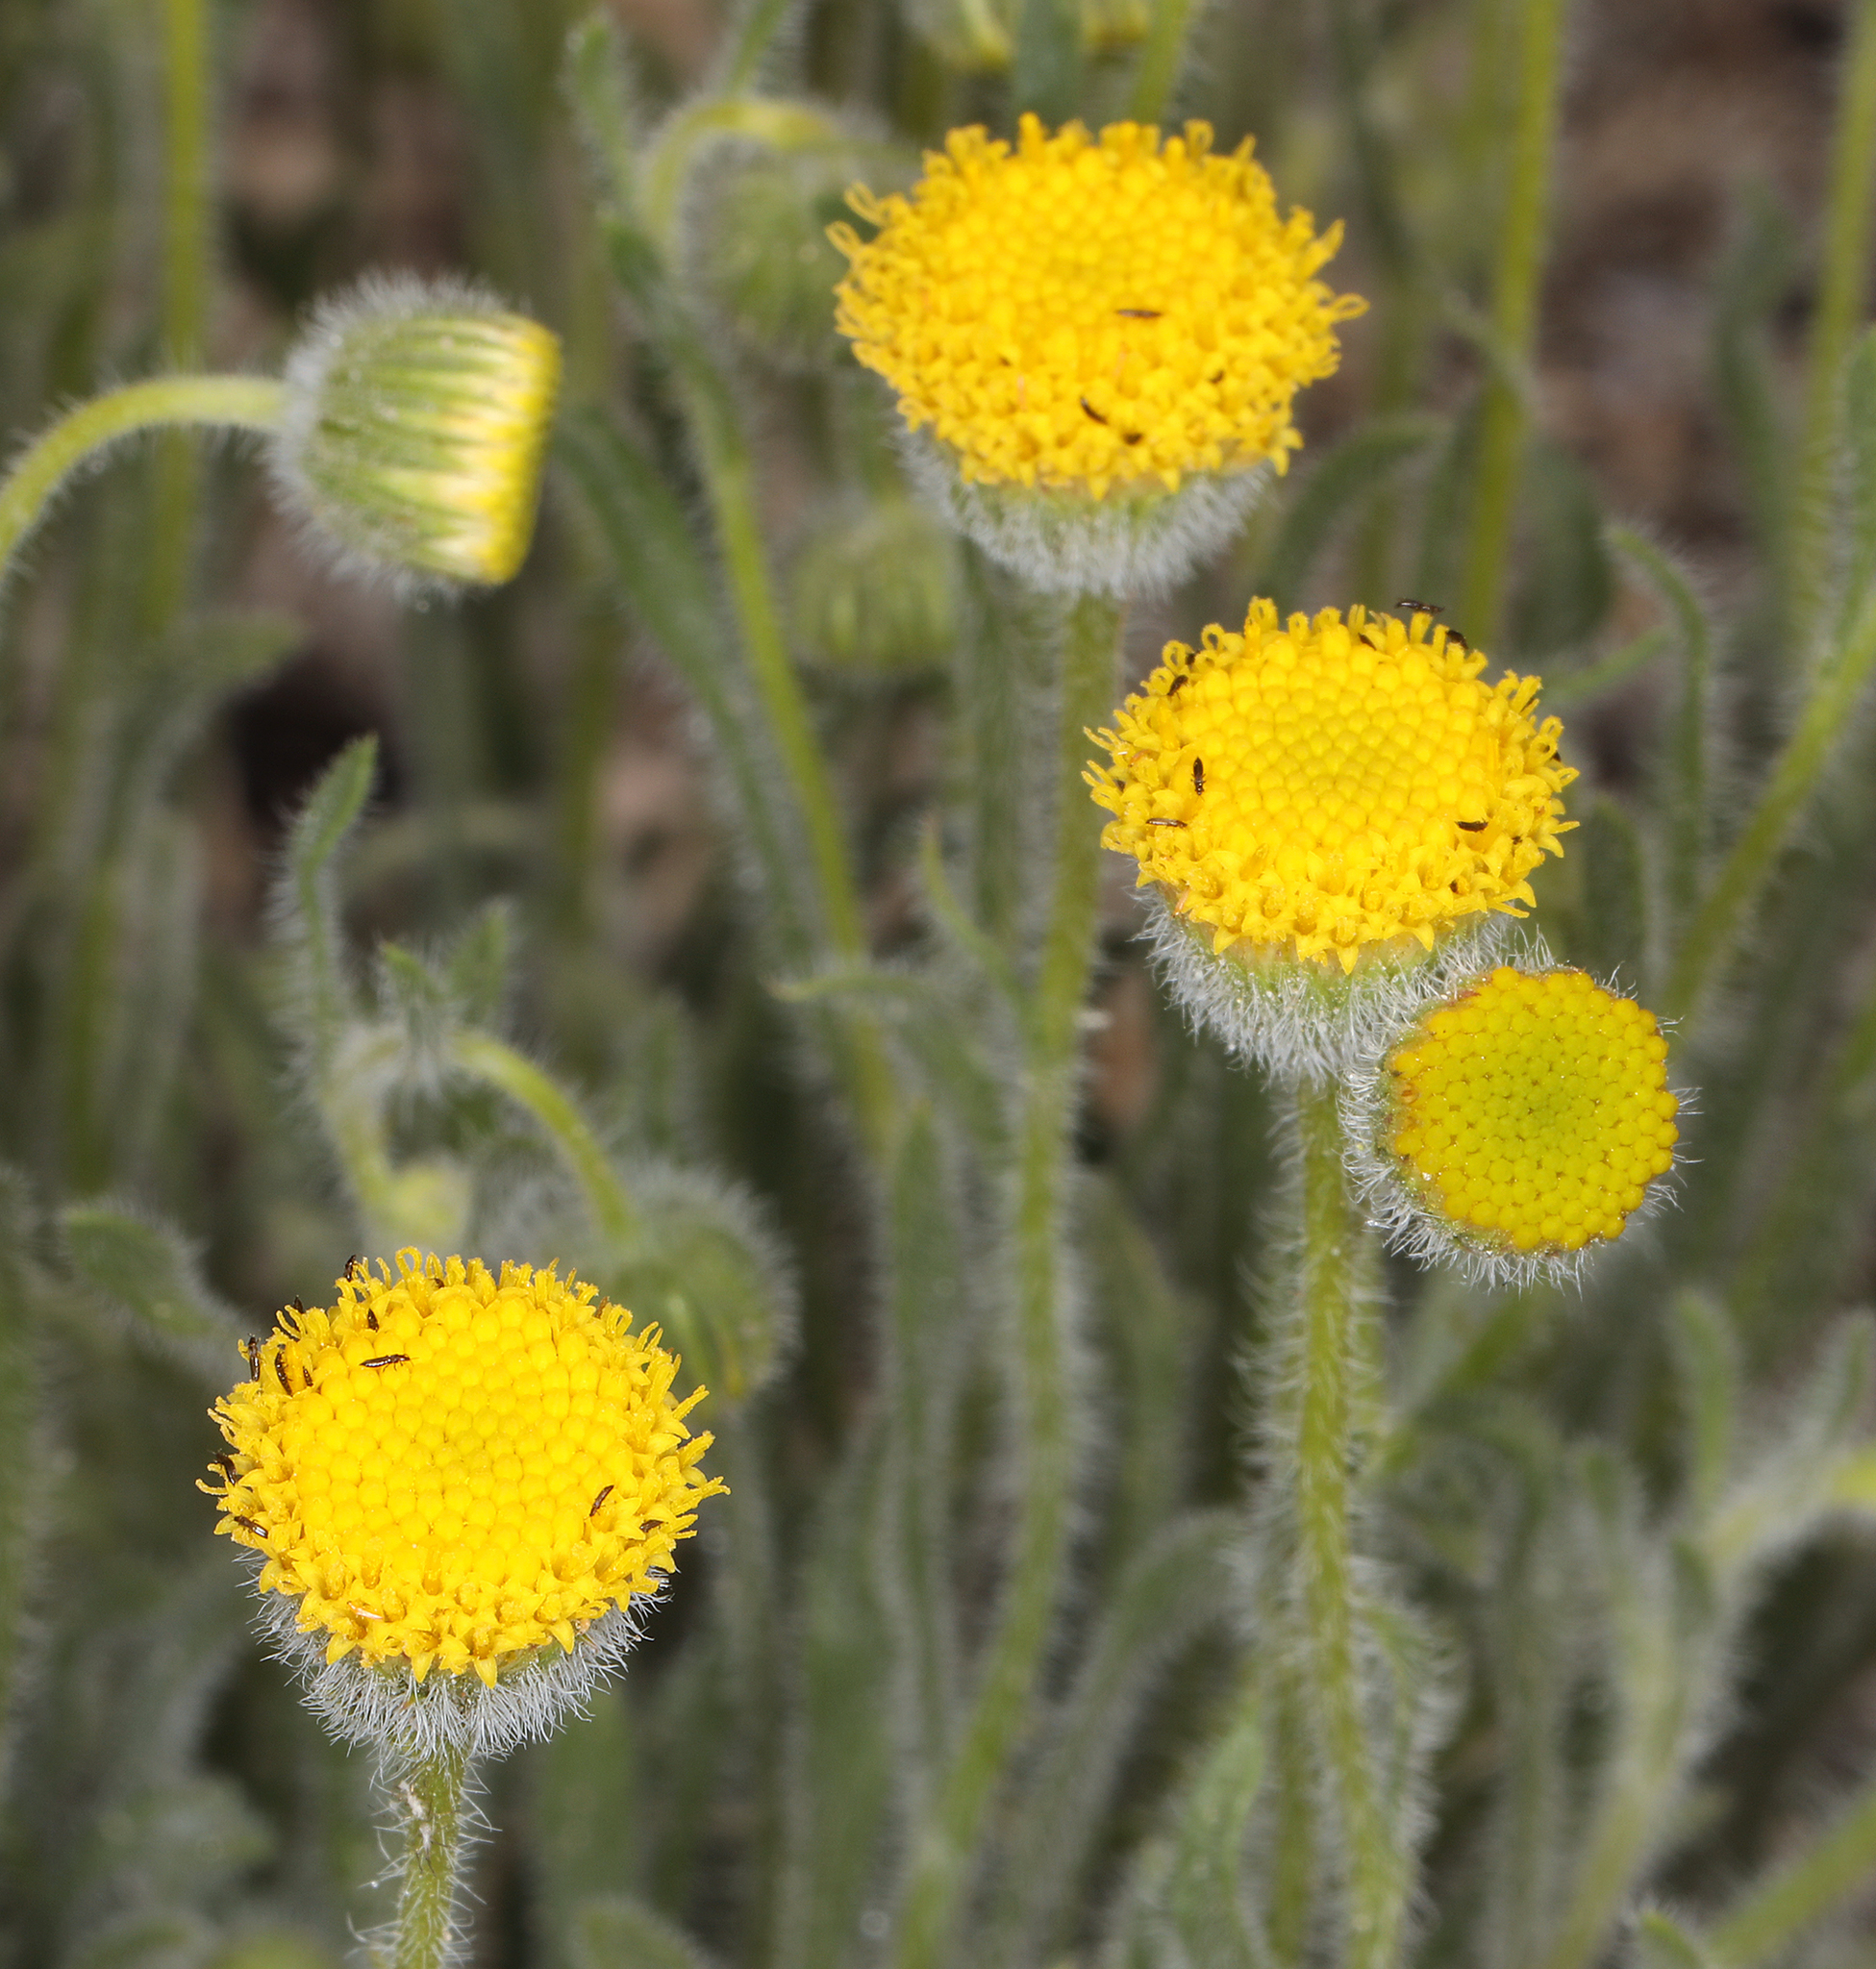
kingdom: Plantae
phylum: Tracheophyta
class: Magnoliopsida
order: Asterales
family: Asteraceae
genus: Erigeron
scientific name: Erigeron aphanactis
